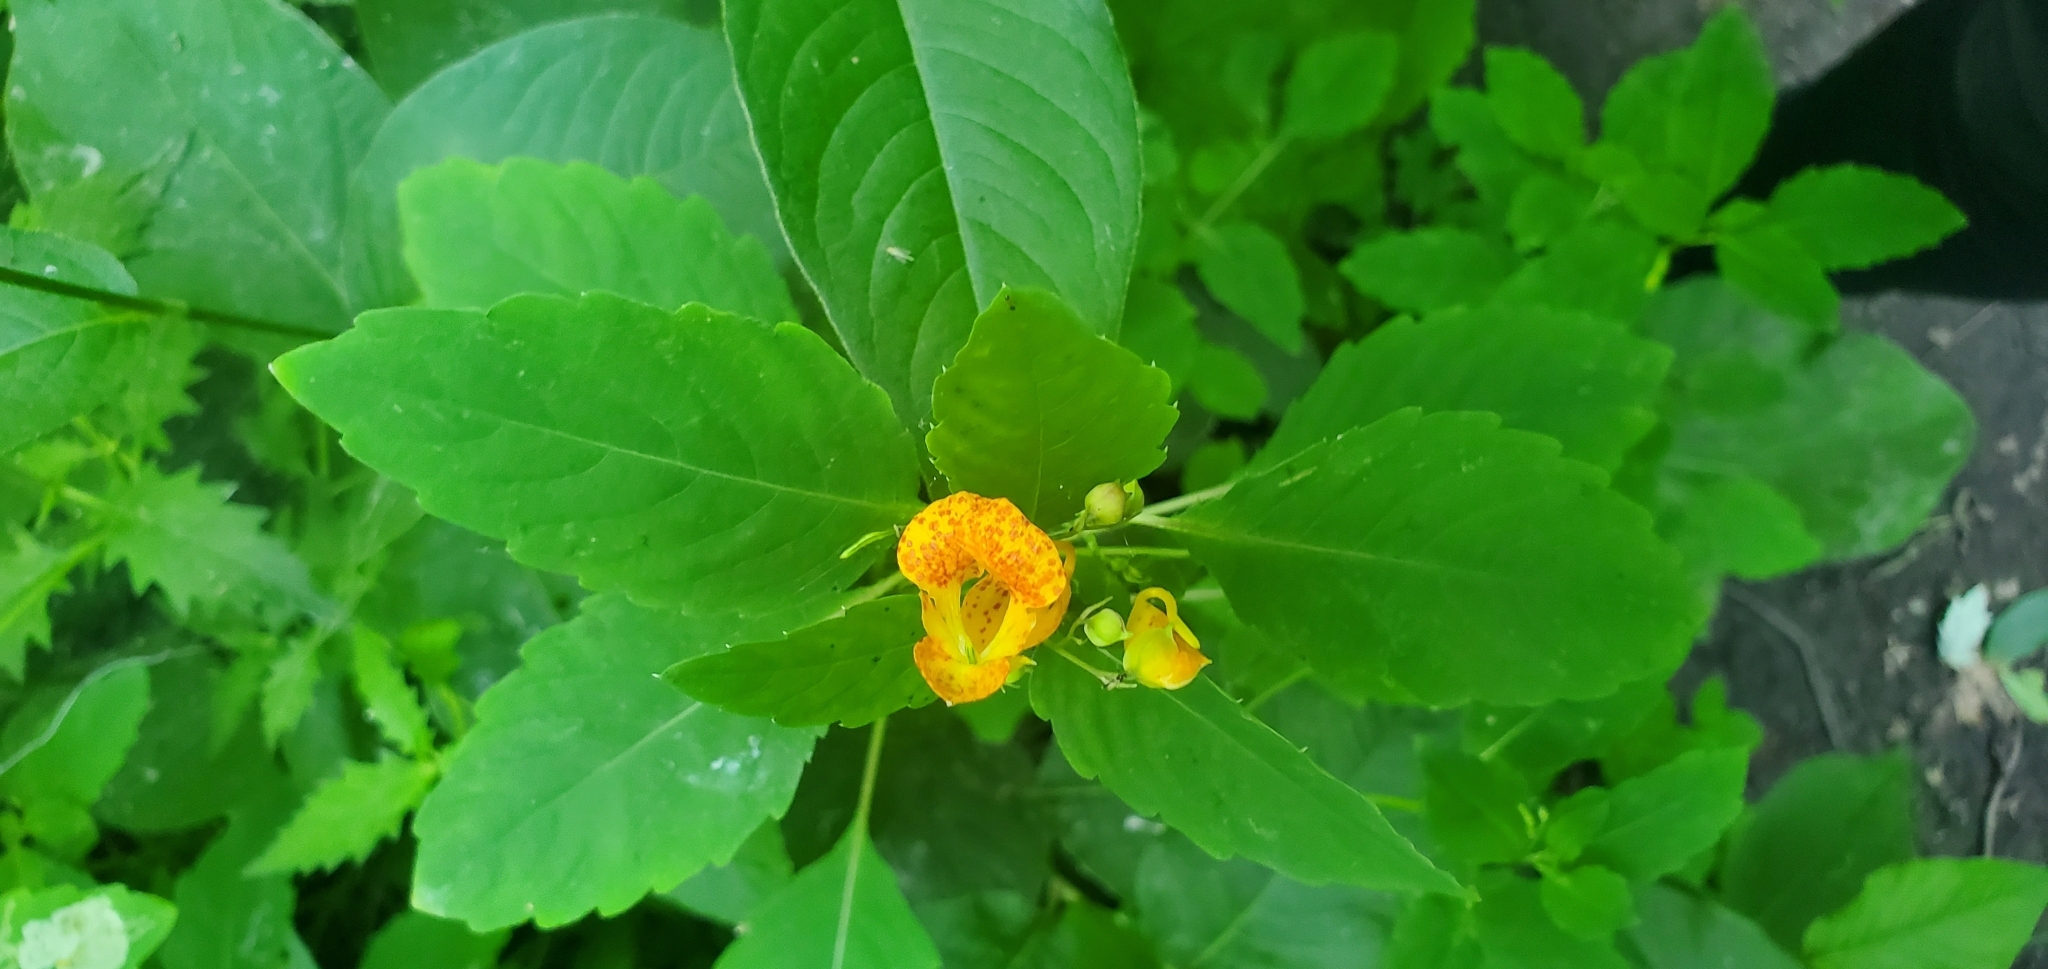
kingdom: Plantae
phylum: Tracheophyta
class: Magnoliopsida
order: Ericales
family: Balsaminaceae
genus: Impatiens
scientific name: Impatiens capensis
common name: Orange balsam
